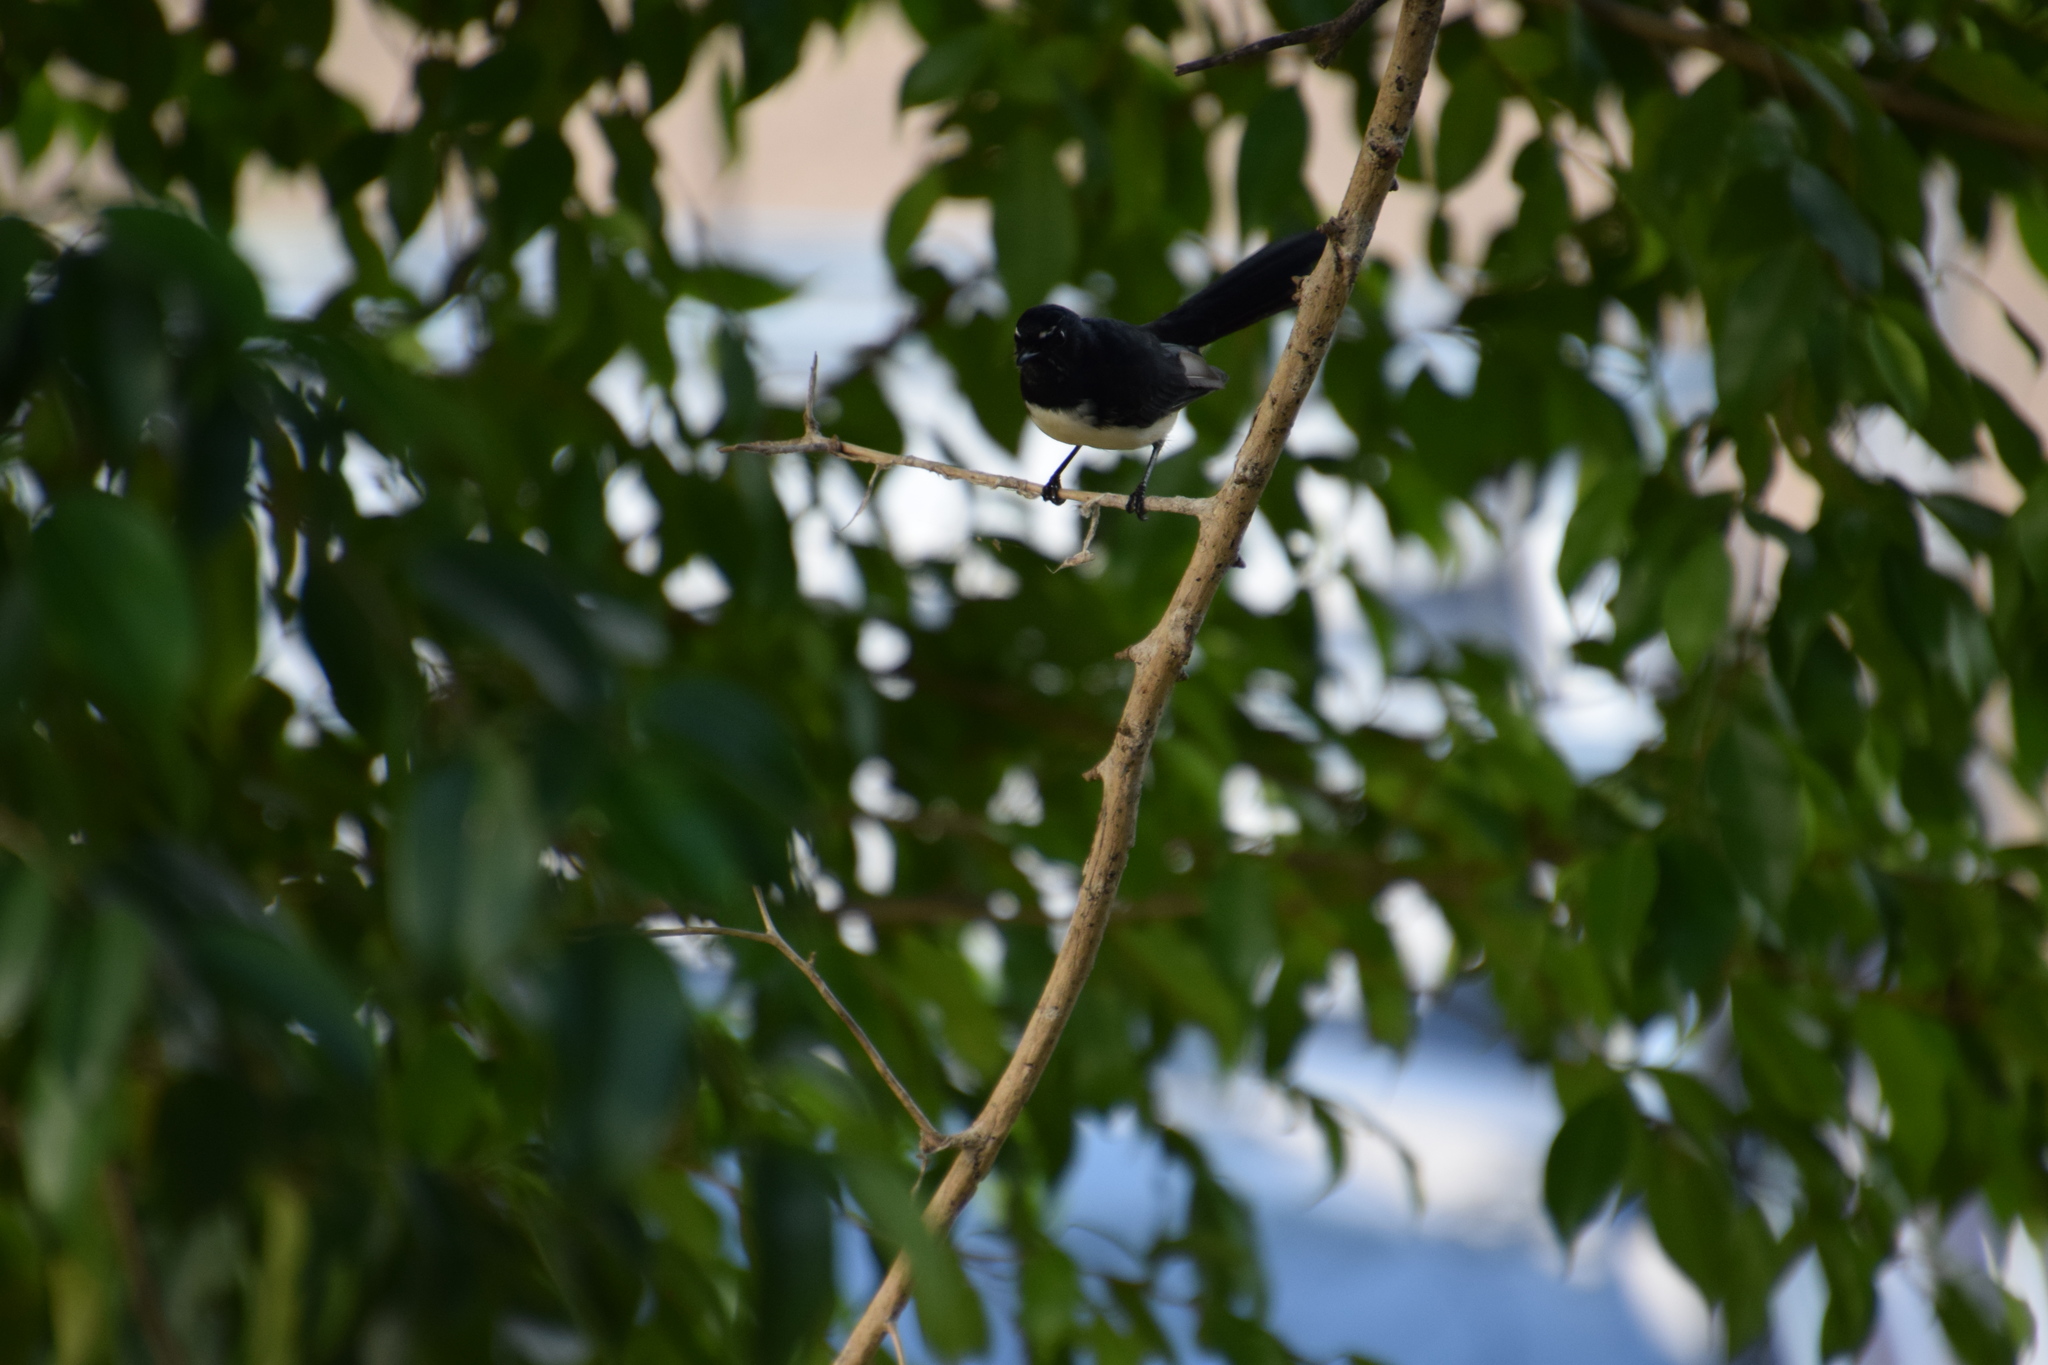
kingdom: Animalia
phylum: Chordata
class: Aves
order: Passeriformes
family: Rhipiduridae
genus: Rhipidura
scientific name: Rhipidura leucophrys
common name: Willie wagtail
